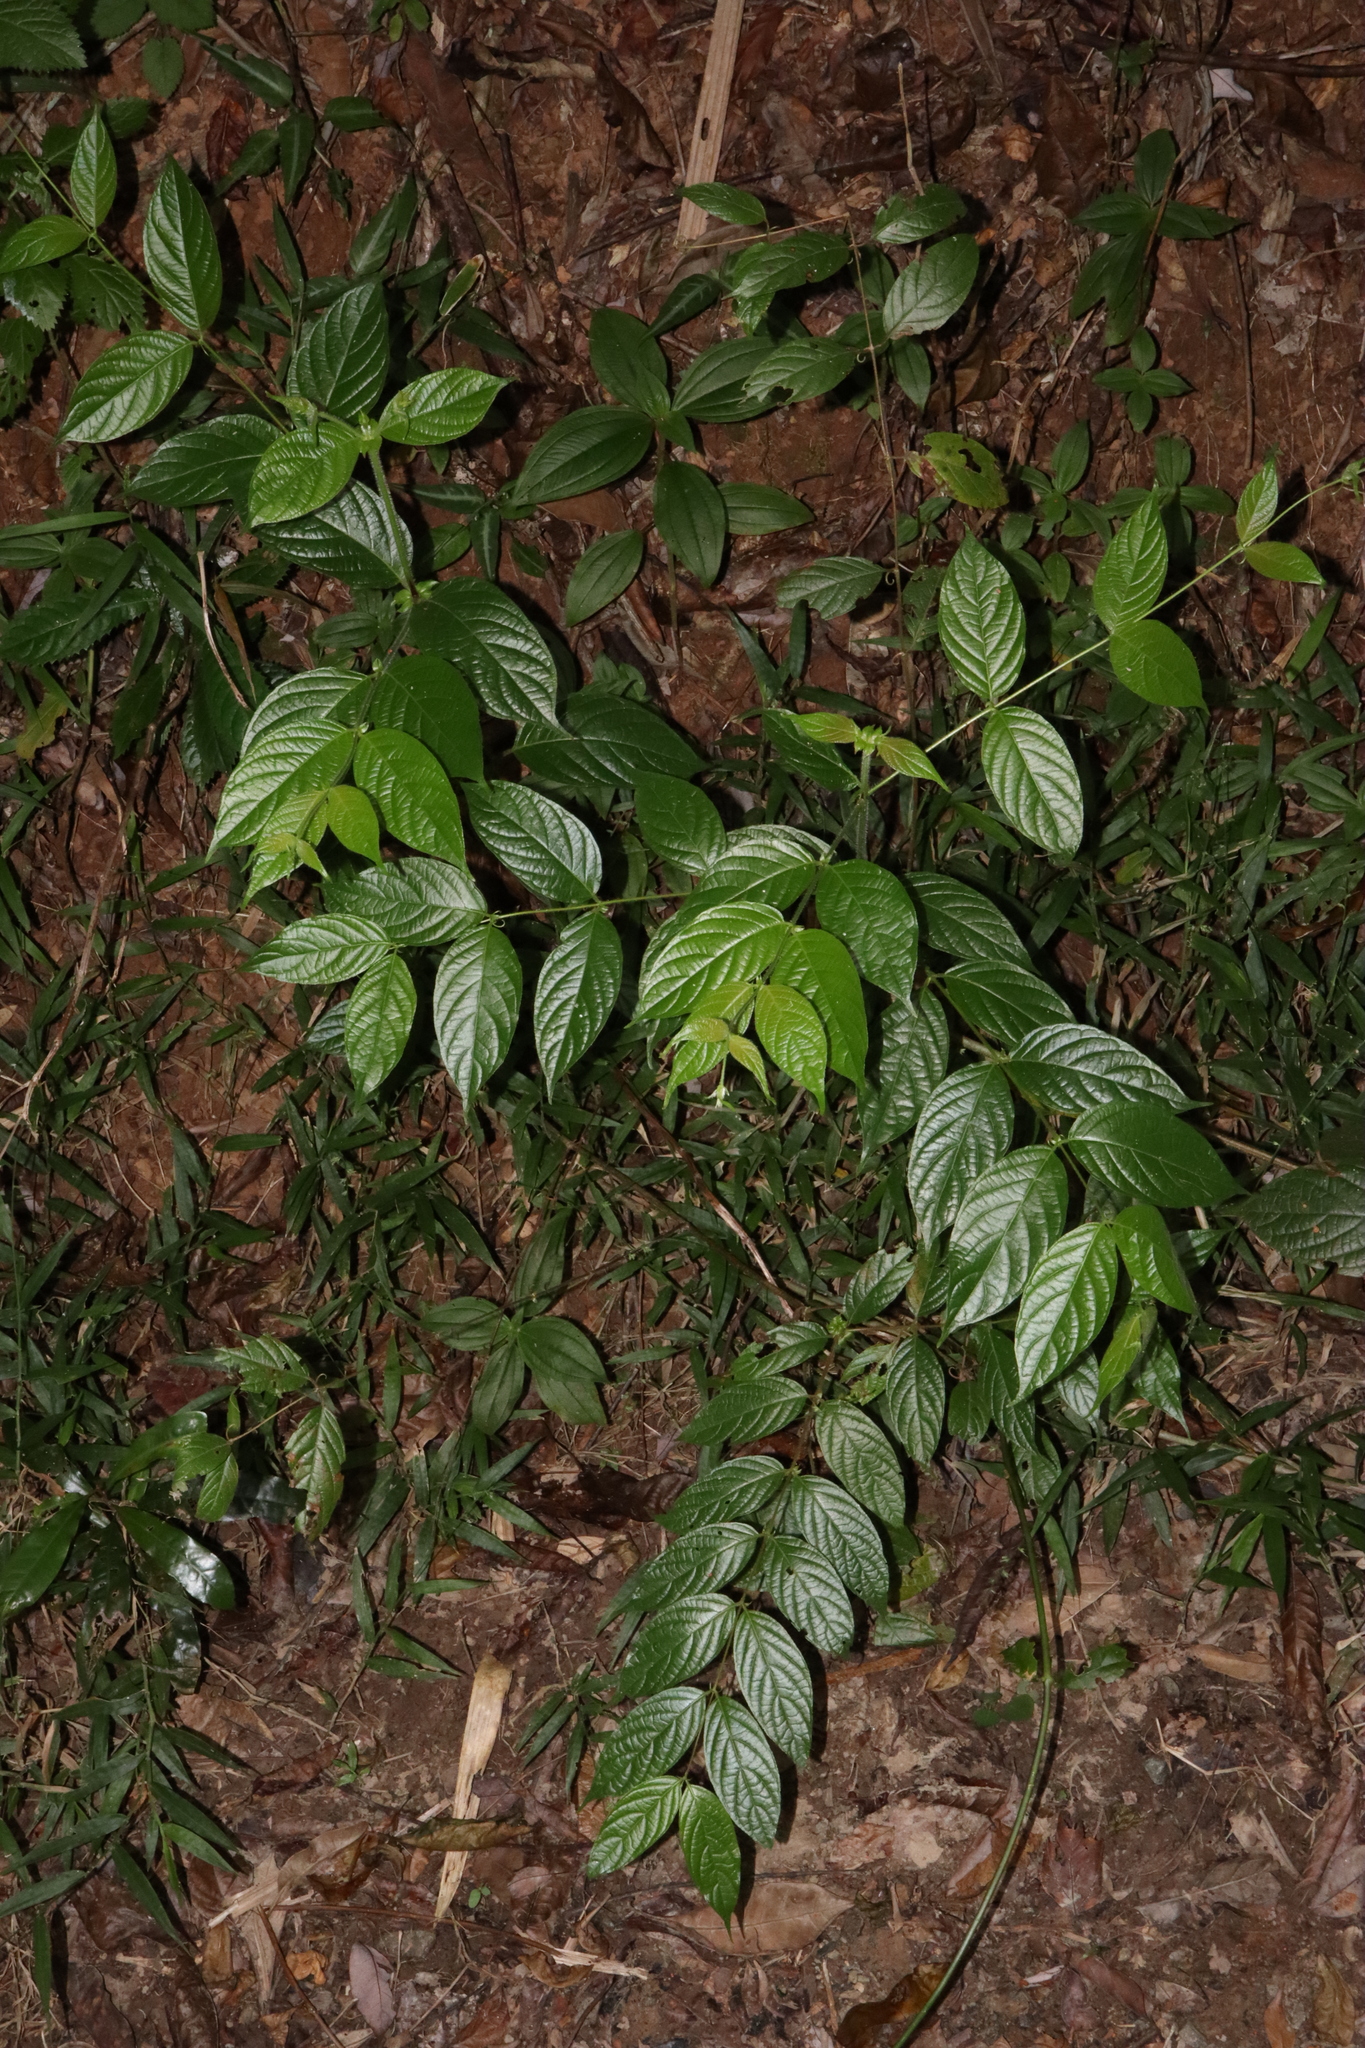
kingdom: Plantae
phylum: Tracheophyta
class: Magnoliopsida
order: Gentianales
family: Rubiaceae
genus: Uncaria
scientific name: Uncaria lanosa
